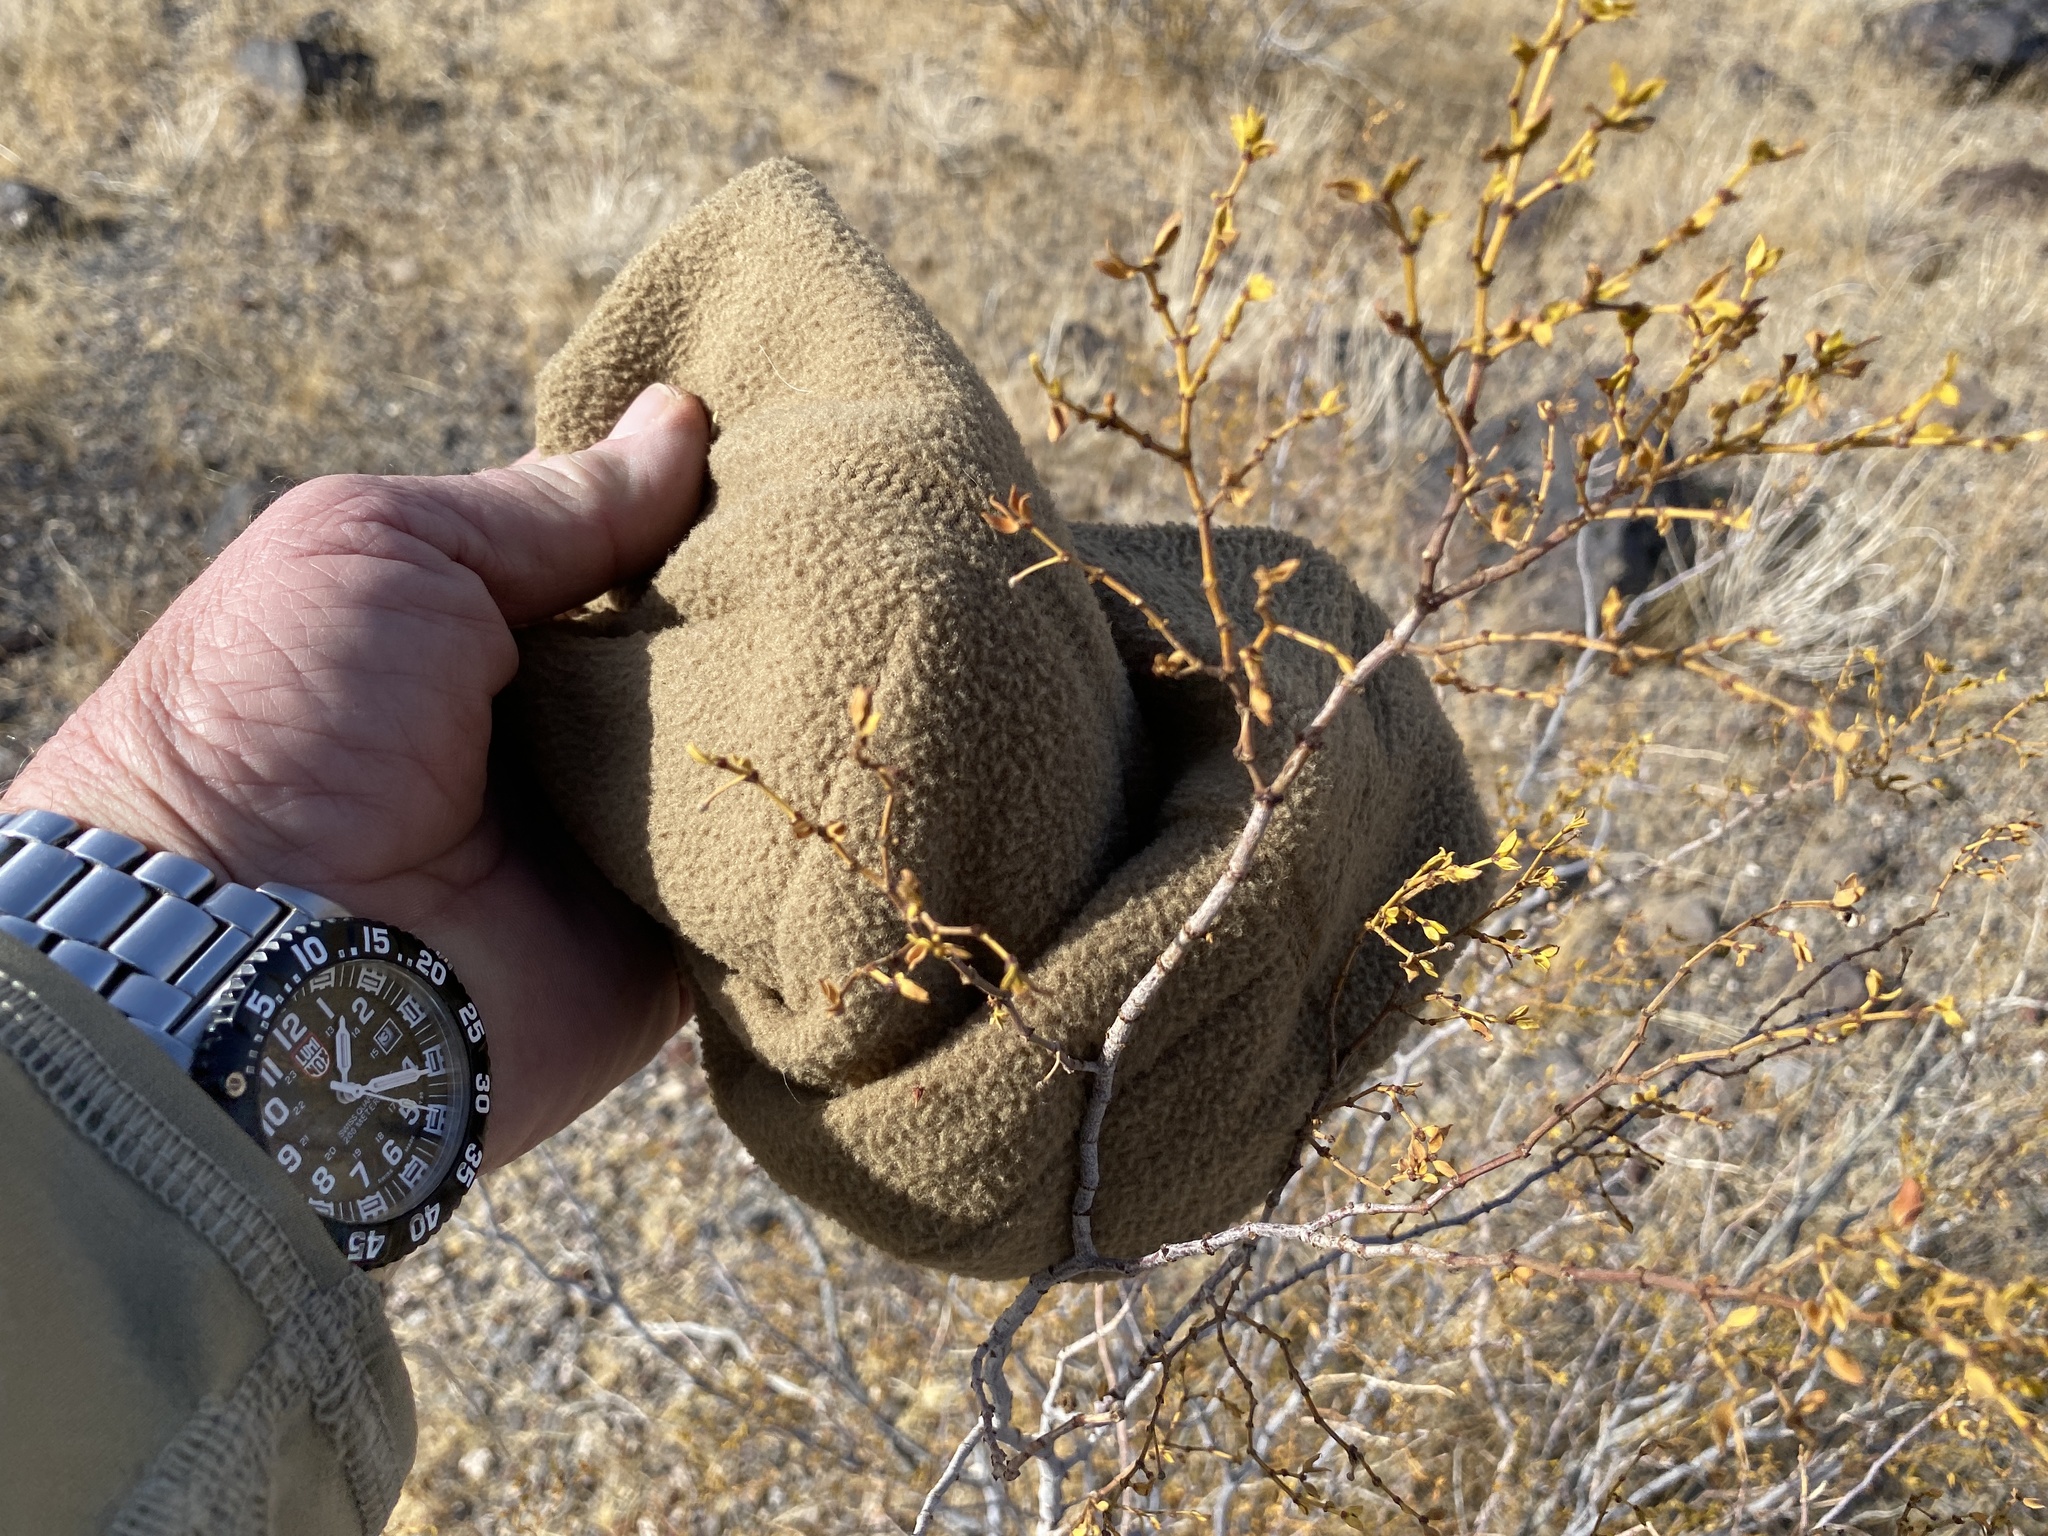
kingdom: Plantae
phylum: Tracheophyta
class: Magnoliopsida
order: Zygophyllales
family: Zygophyllaceae
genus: Larrea
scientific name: Larrea tridentata
